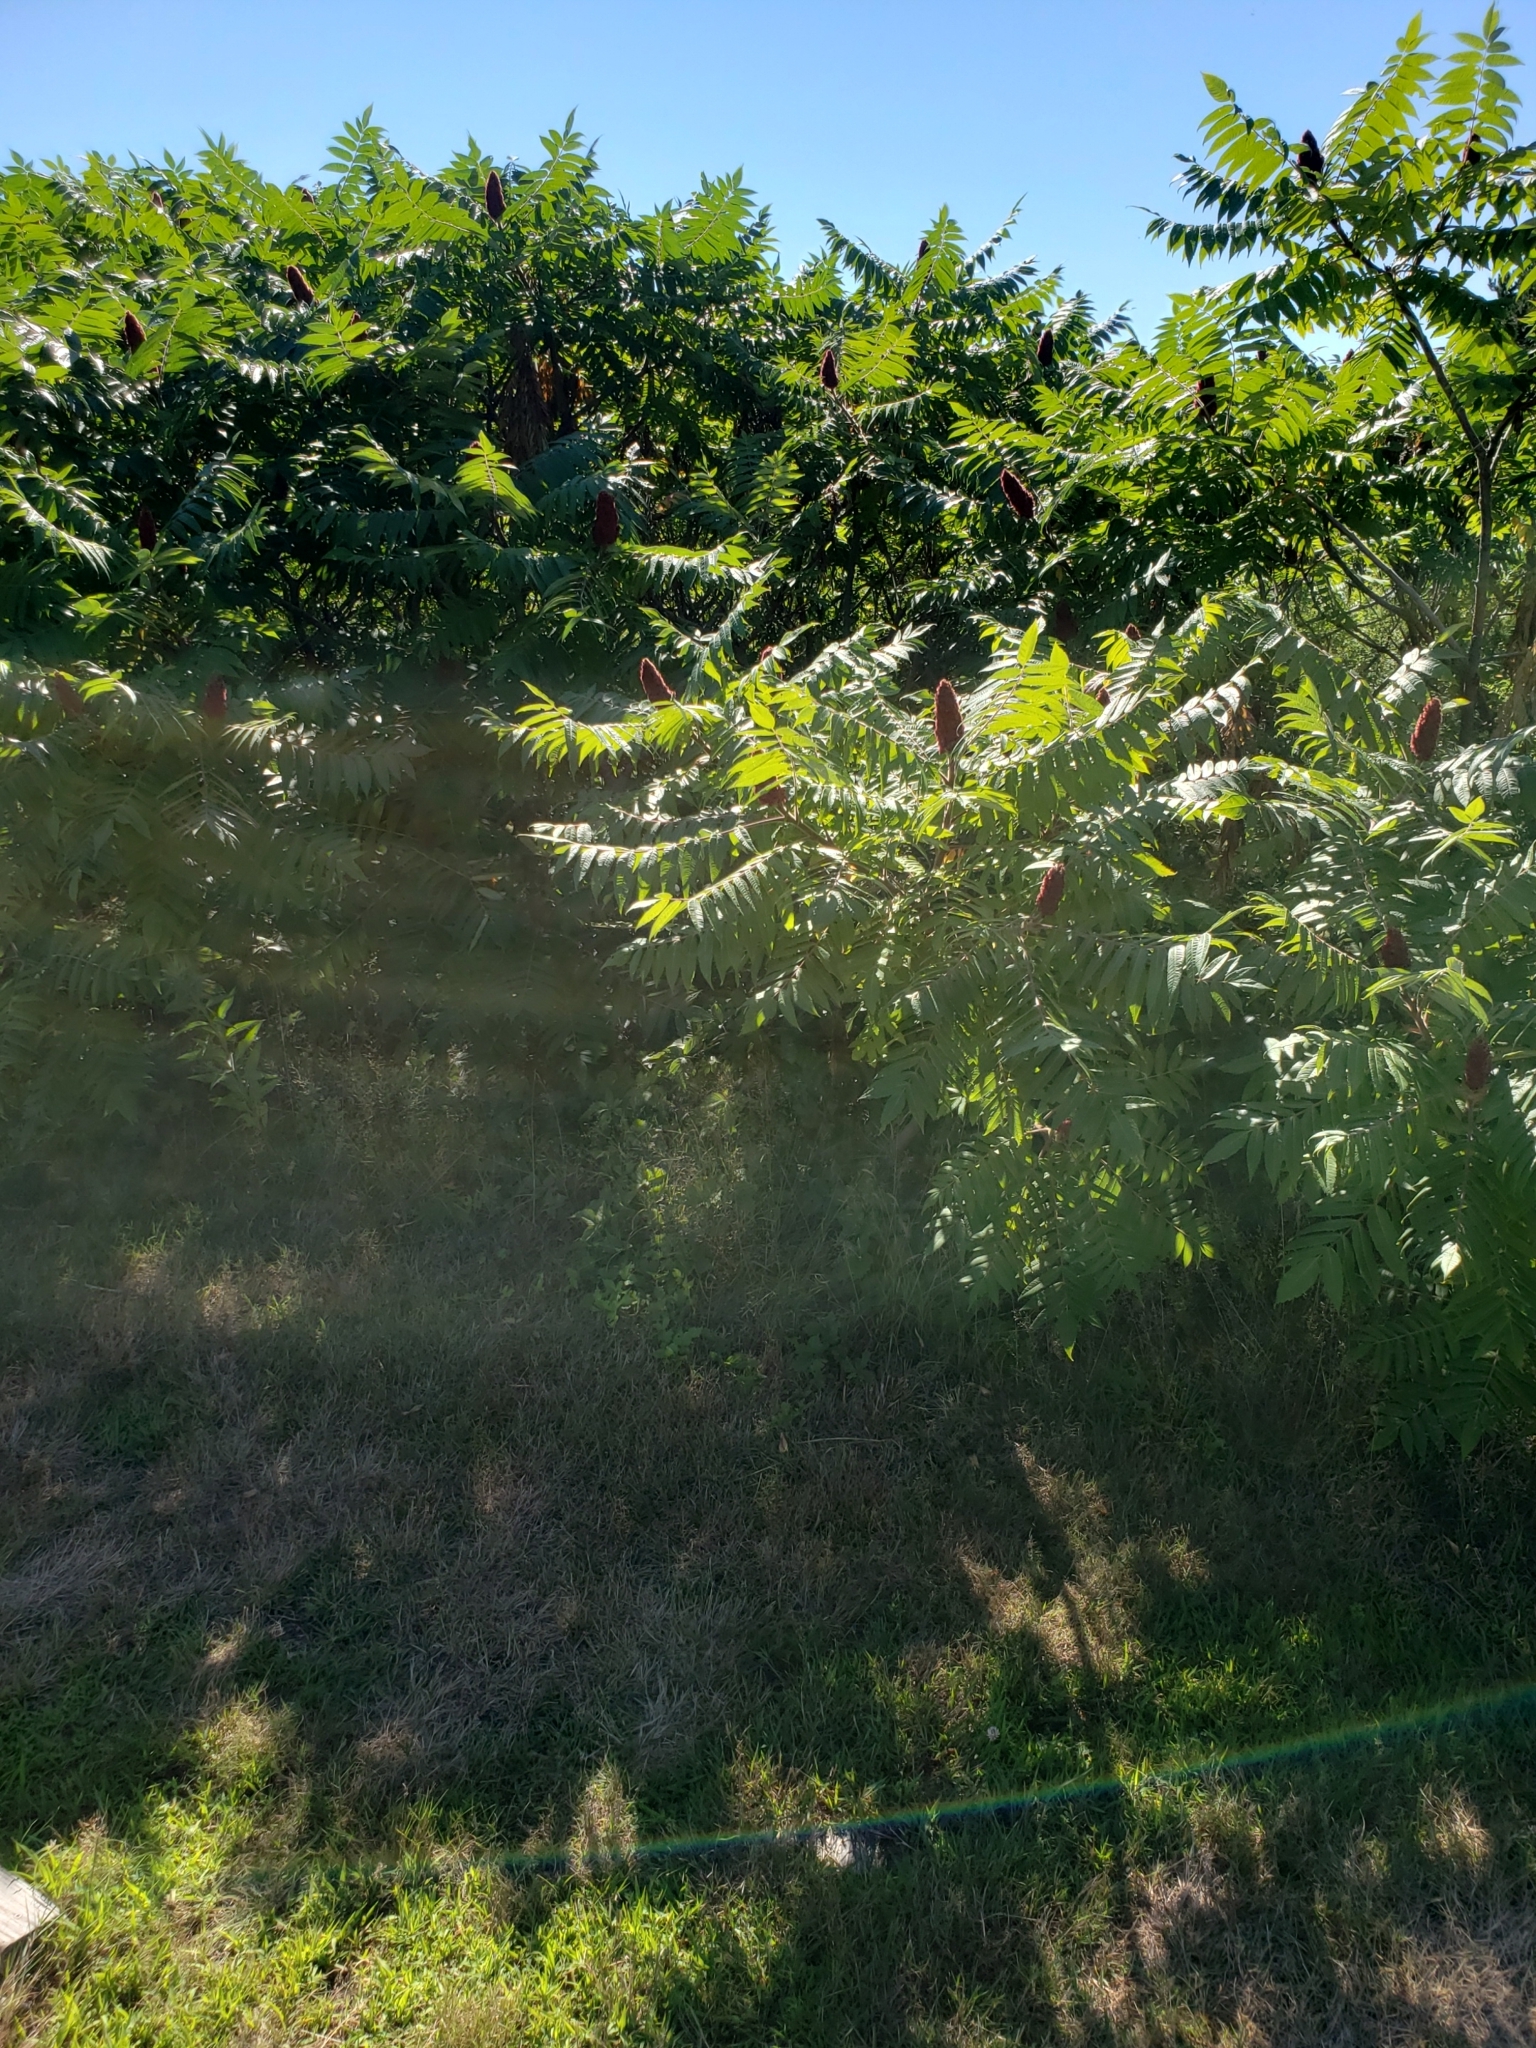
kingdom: Plantae
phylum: Tracheophyta
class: Magnoliopsida
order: Sapindales
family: Anacardiaceae
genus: Rhus
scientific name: Rhus typhina
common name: Staghorn sumac
